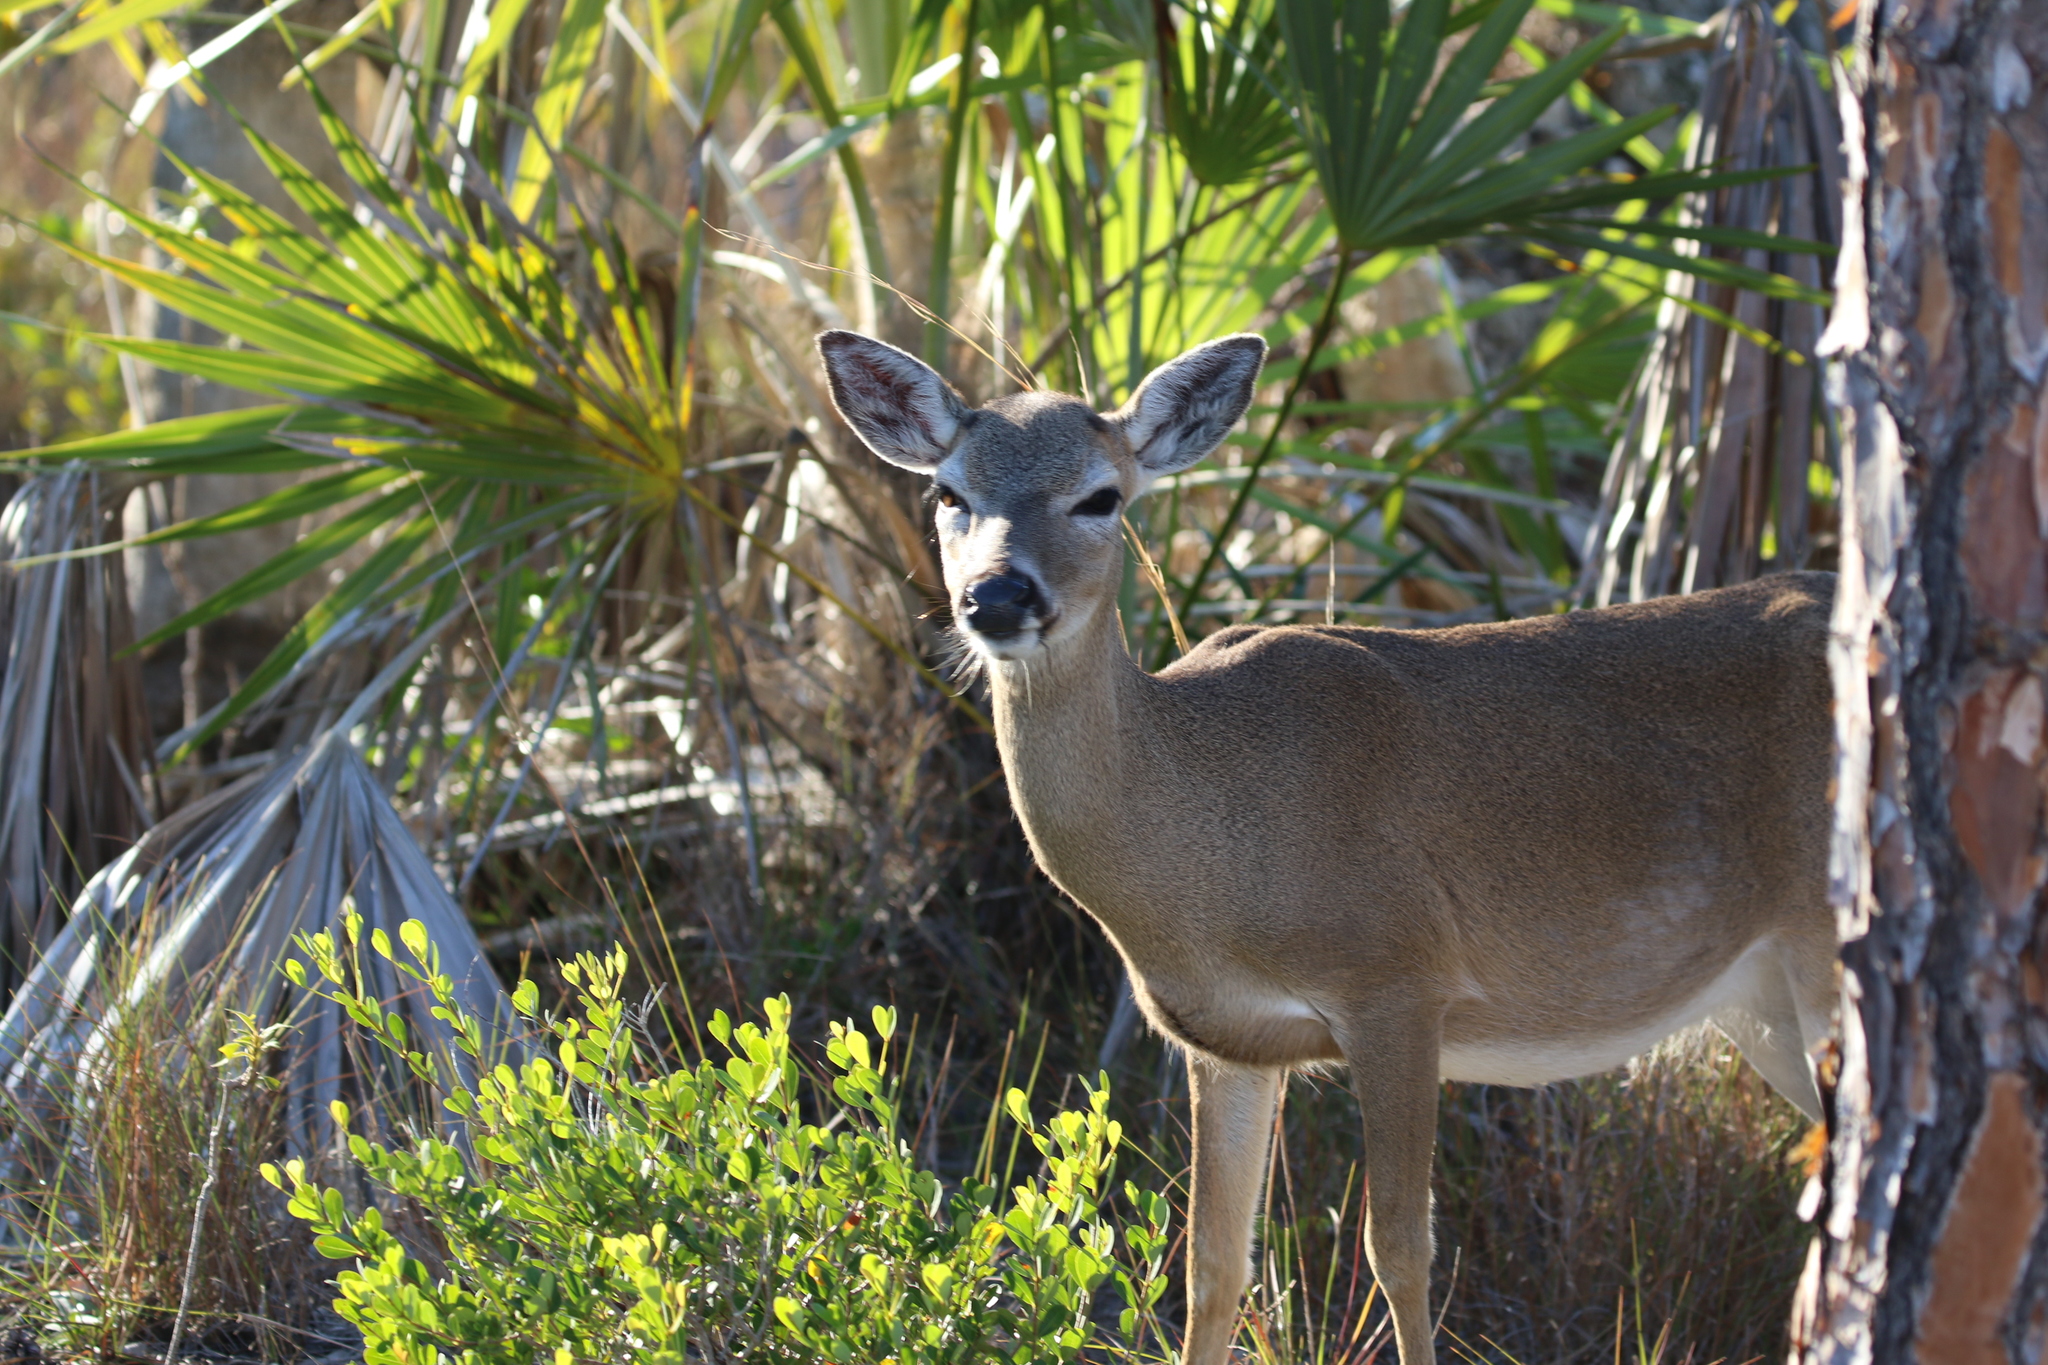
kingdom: Animalia
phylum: Chordata
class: Mammalia
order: Artiodactyla
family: Cervidae
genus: Odocoileus
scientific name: Odocoileus virginianus
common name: White-tailed deer
